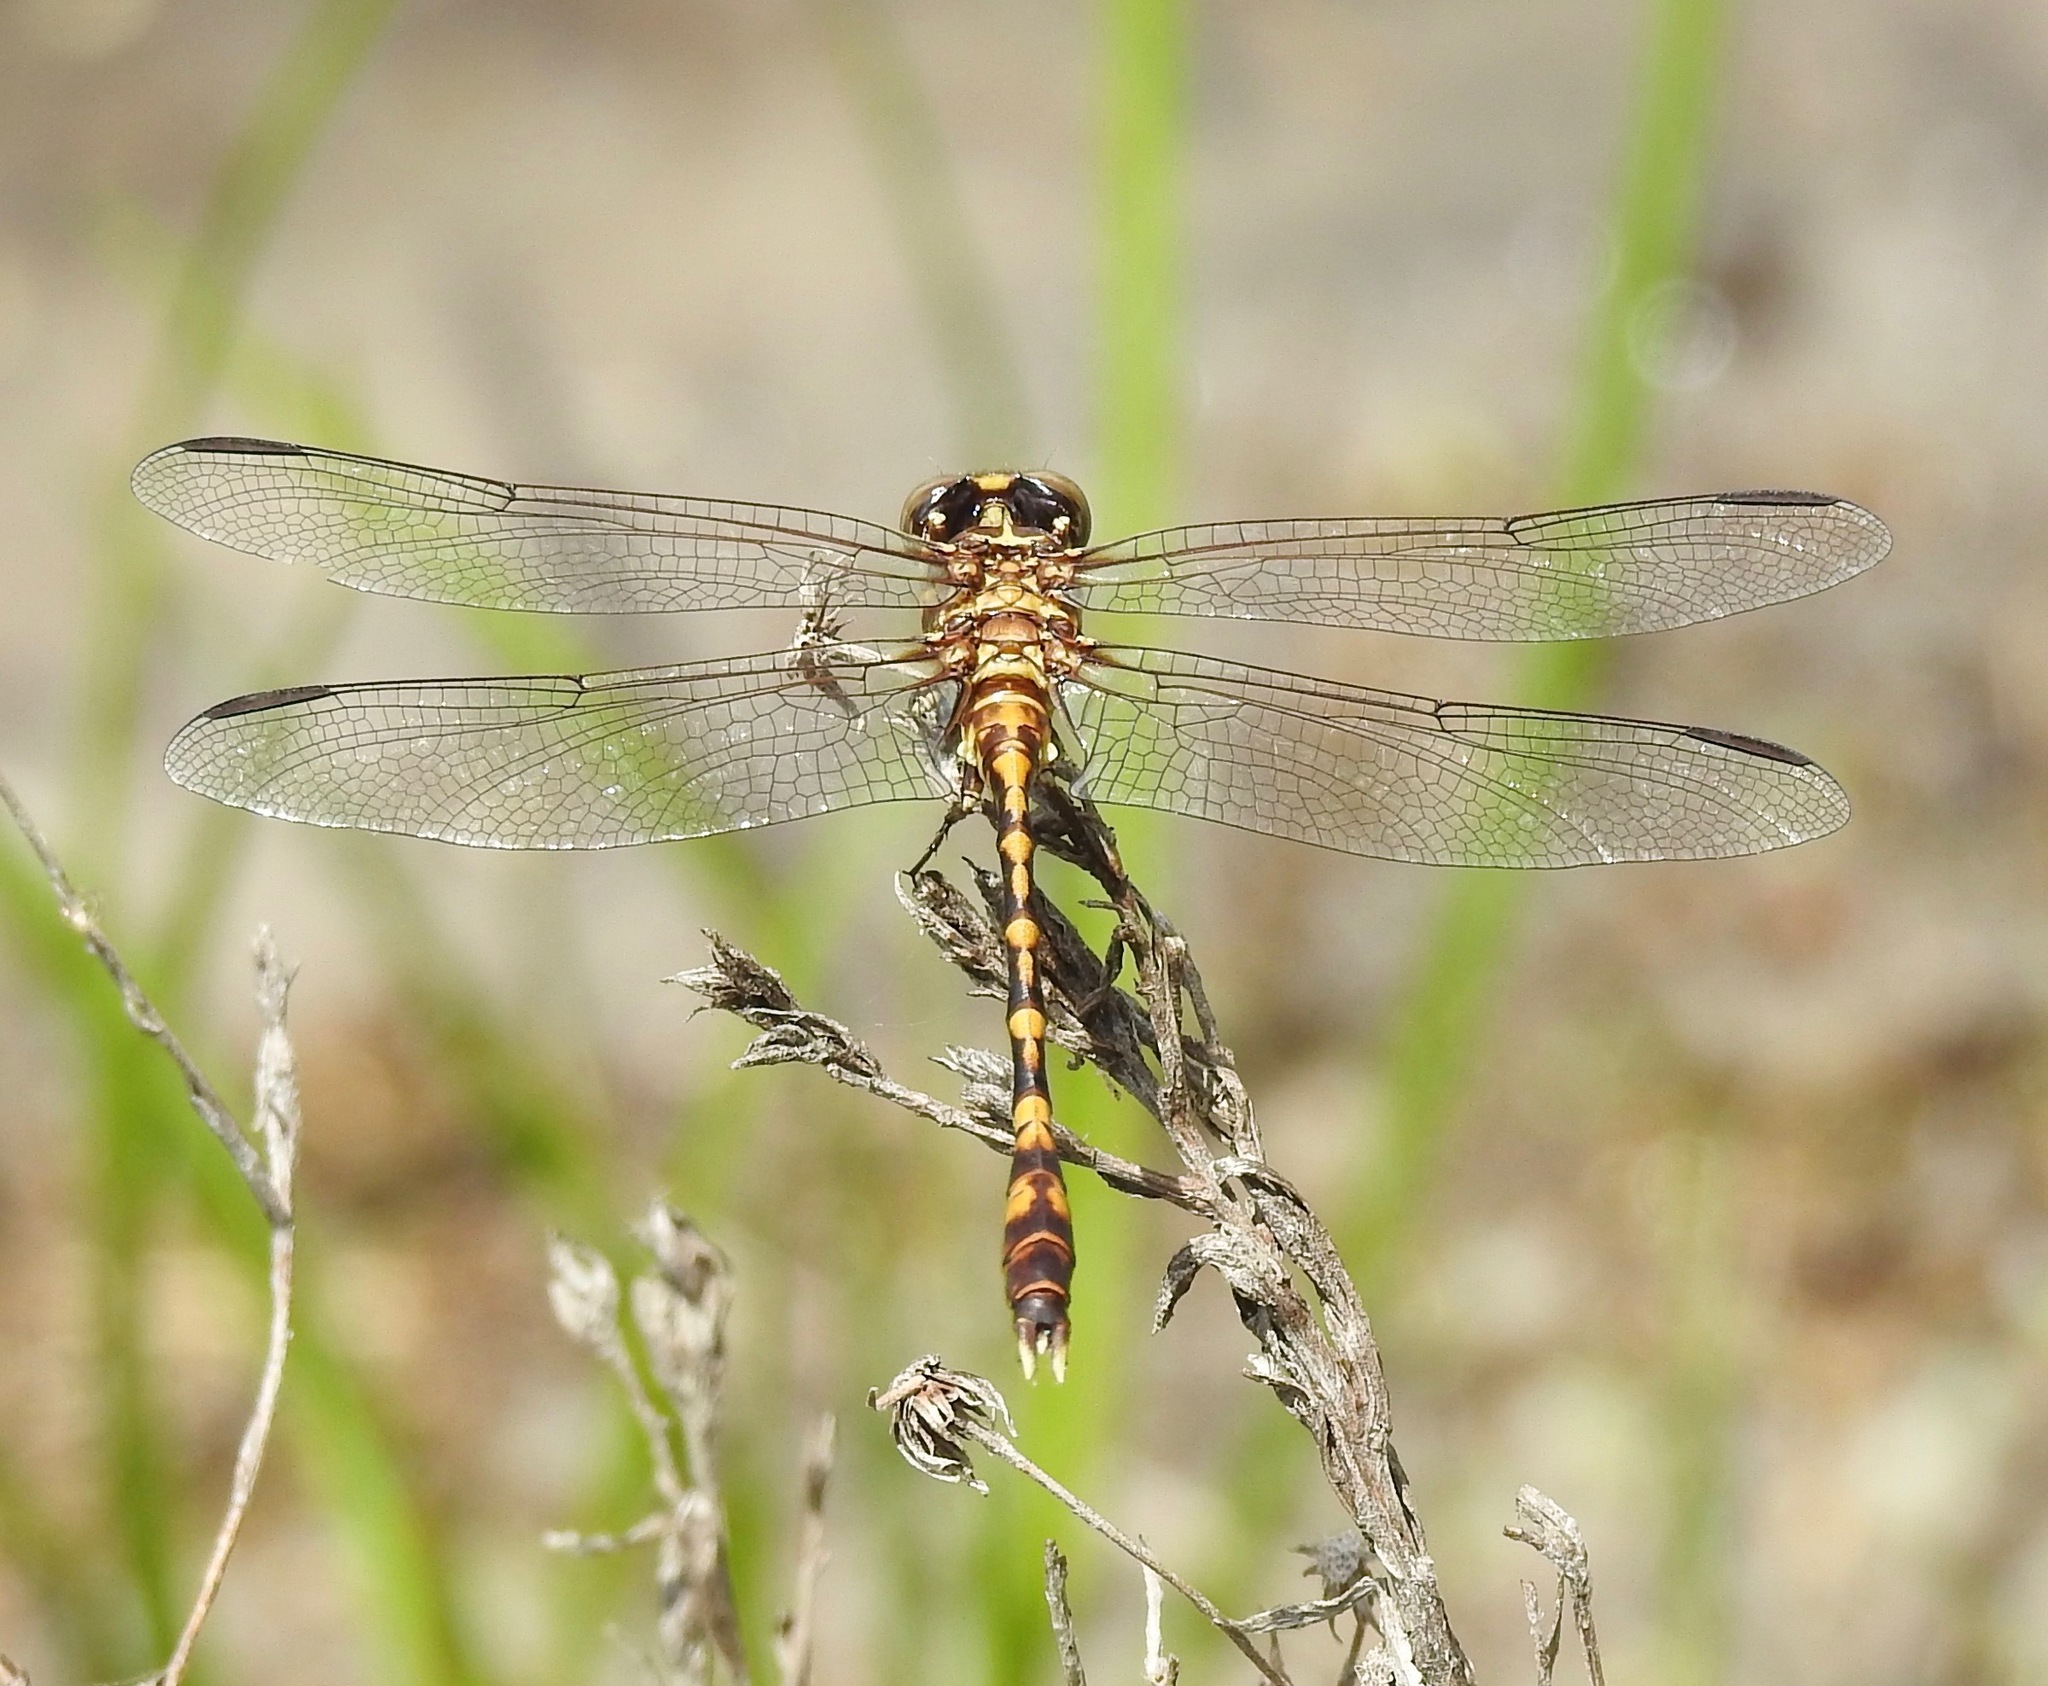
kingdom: Animalia
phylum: Arthropoda
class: Insecta
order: Odonata
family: Gomphidae
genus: Progomphus
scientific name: Progomphus alachuensis
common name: Tawny sanddragon
